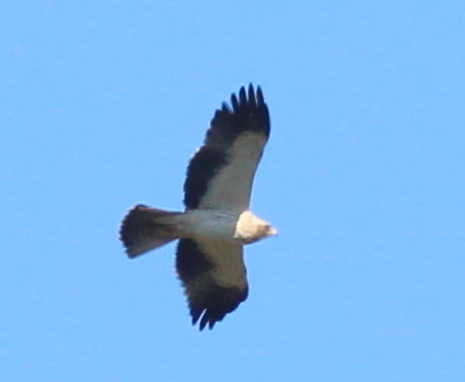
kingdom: Animalia
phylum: Chordata
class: Aves
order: Accipitriformes
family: Accipitridae
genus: Hieraaetus
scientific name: Hieraaetus pennatus
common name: Booted eagle
